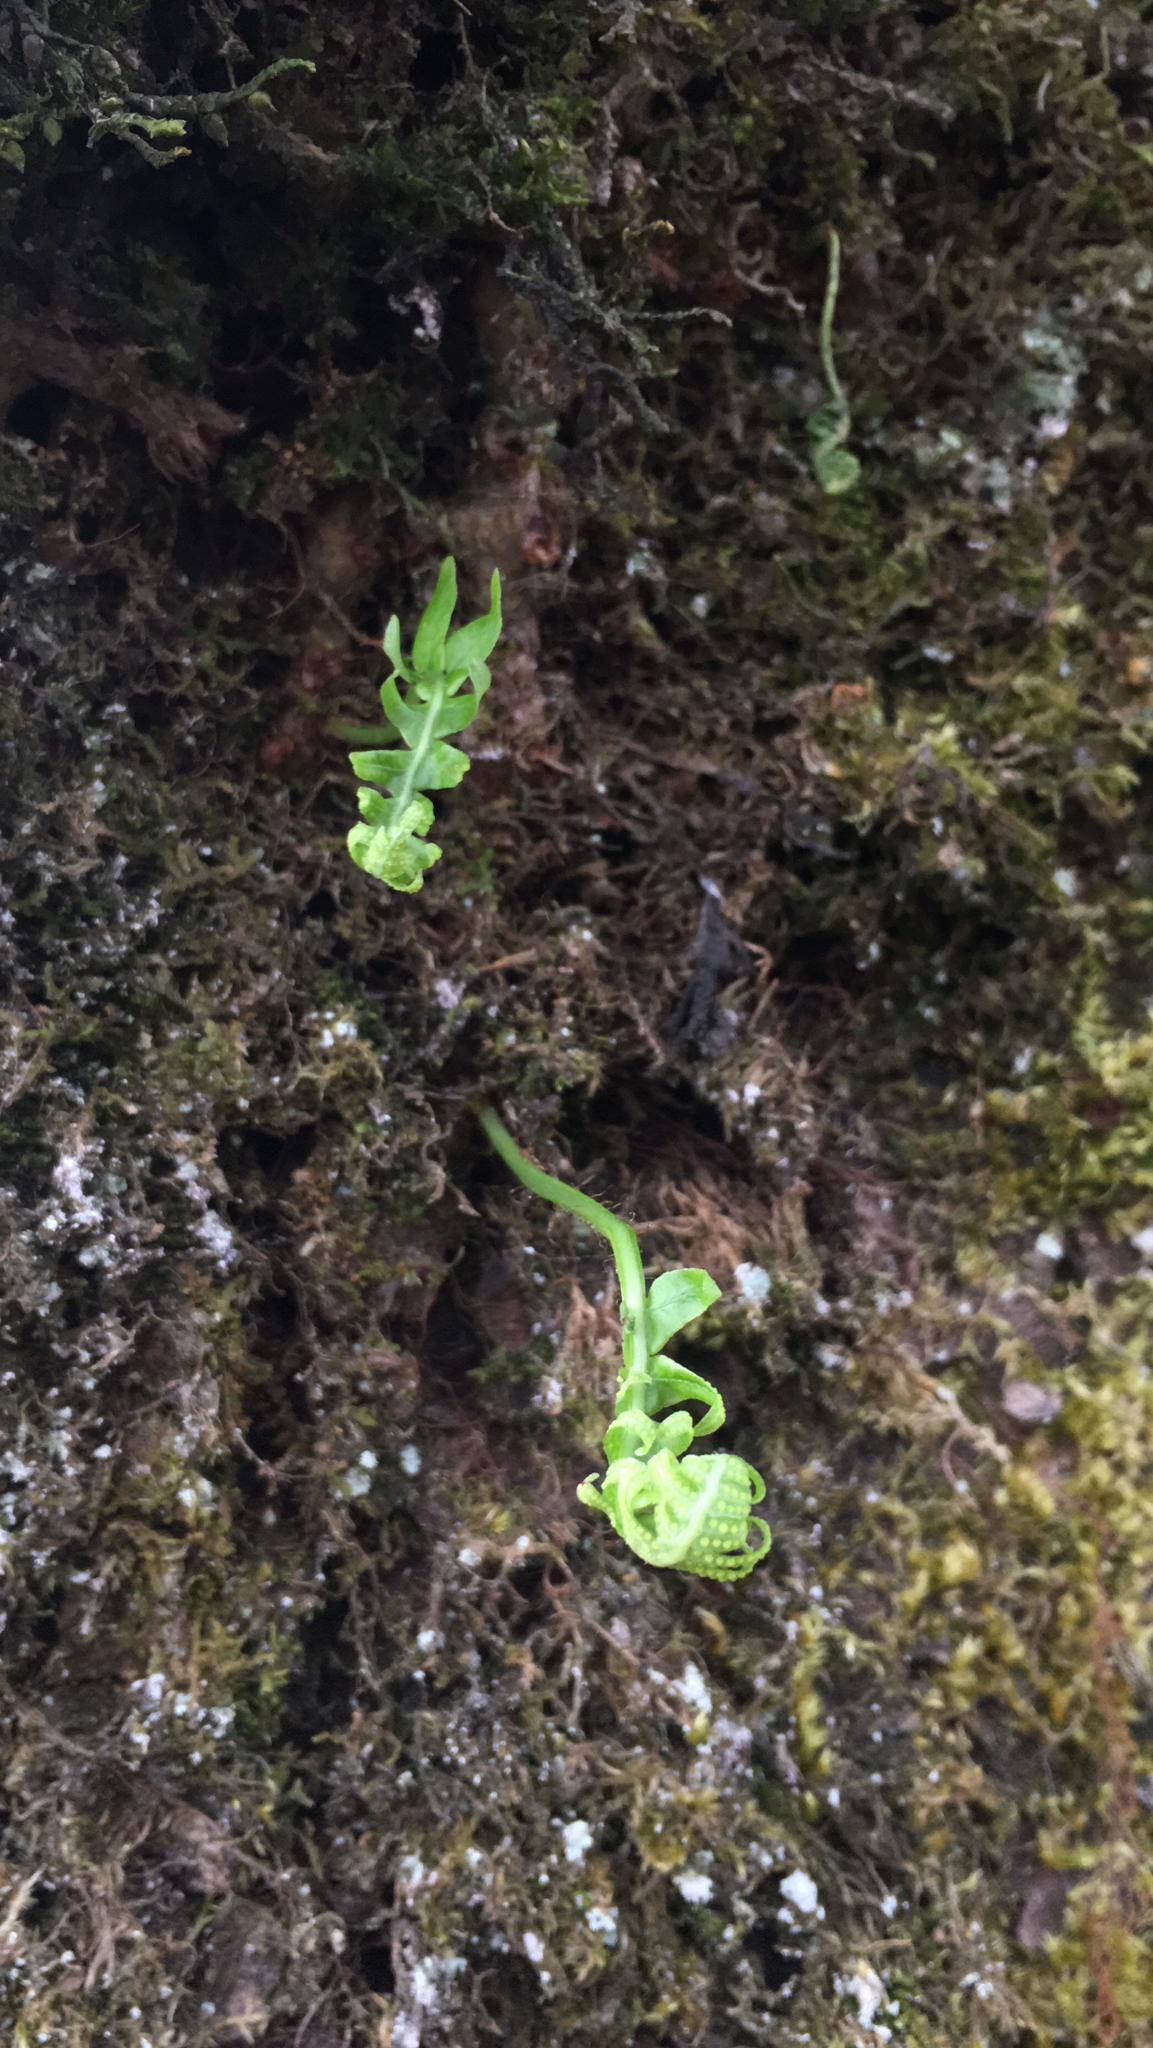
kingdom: Plantae
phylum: Tracheophyta
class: Polypodiopsida
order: Polypodiales
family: Polypodiaceae
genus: Polypodium
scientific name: Polypodium glycyrrhiza
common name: Licorice fern
